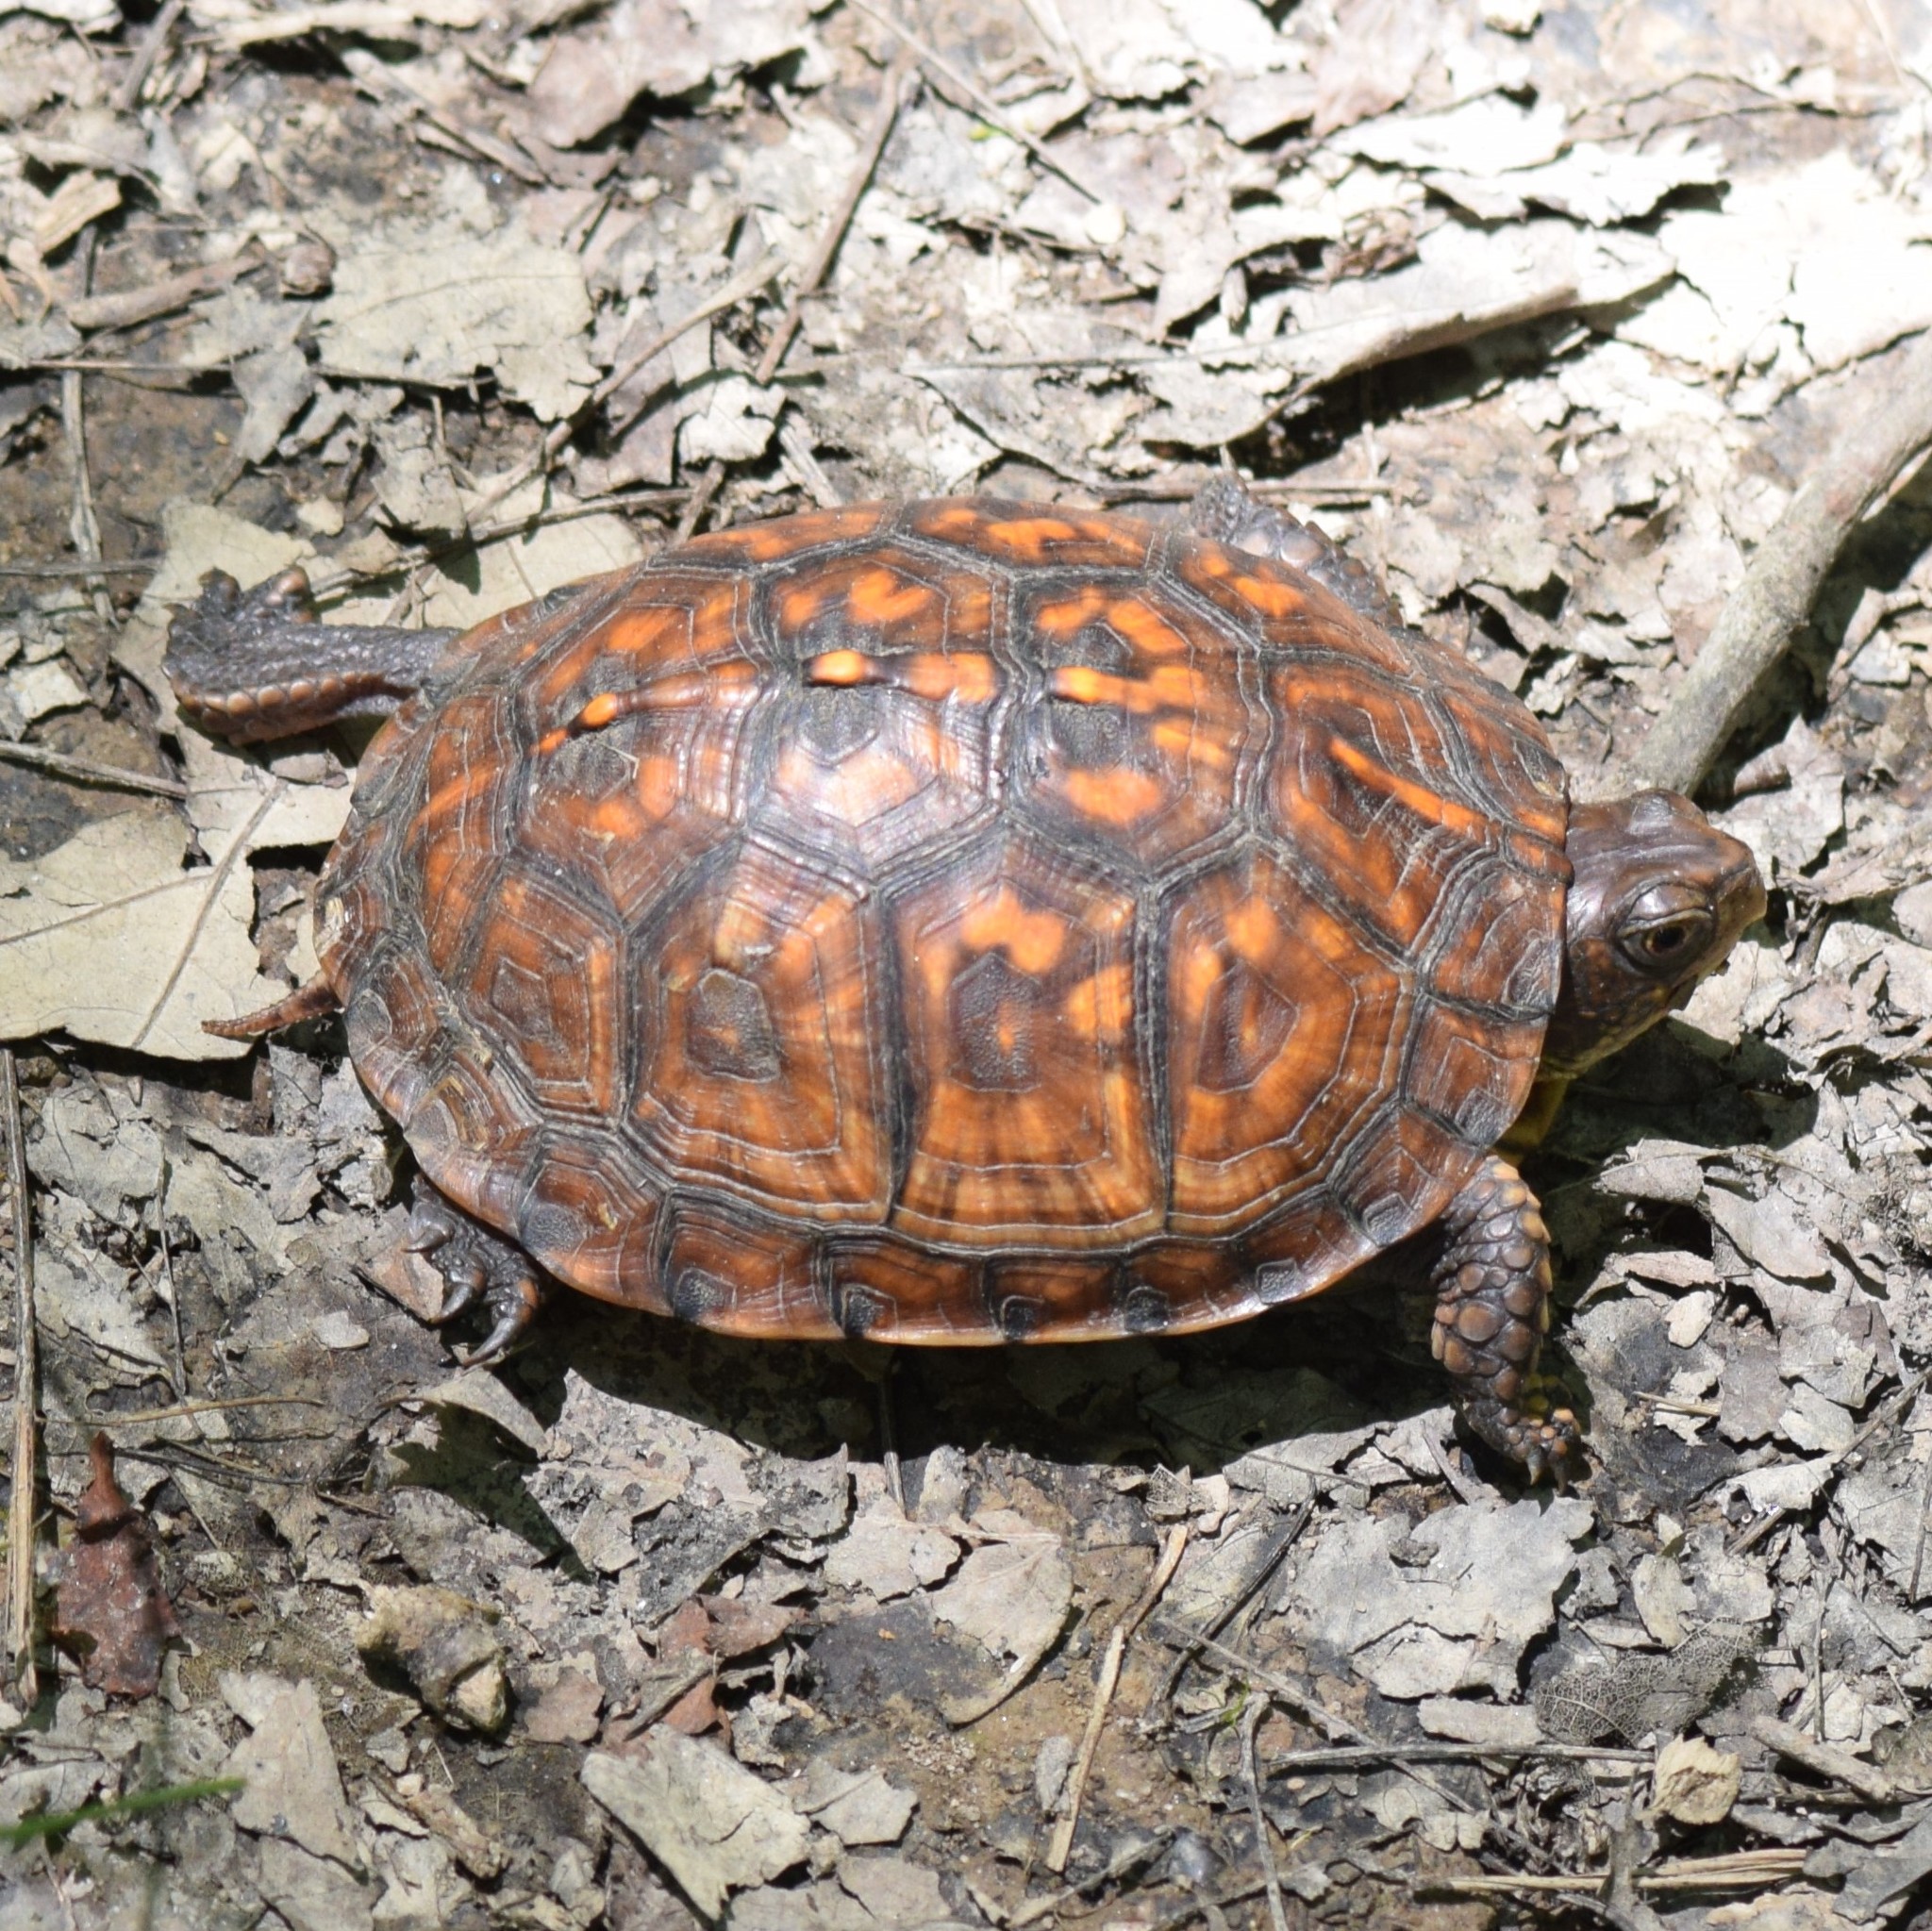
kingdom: Animalia
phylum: Chordata
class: Testudines
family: Emydidae
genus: Terrapene
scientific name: Terrapene carolina
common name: Common box turtle
